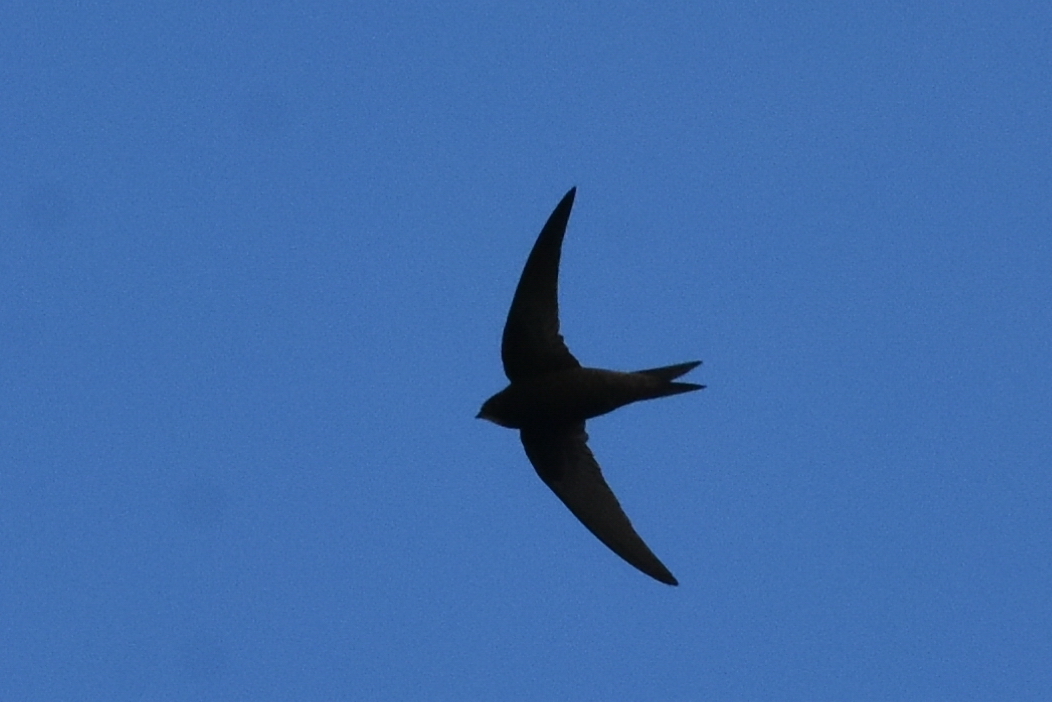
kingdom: Animalia
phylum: Chordata
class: Aves
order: Apodiformes
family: Apodidae
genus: Apus
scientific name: Apus apus
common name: Common swift
